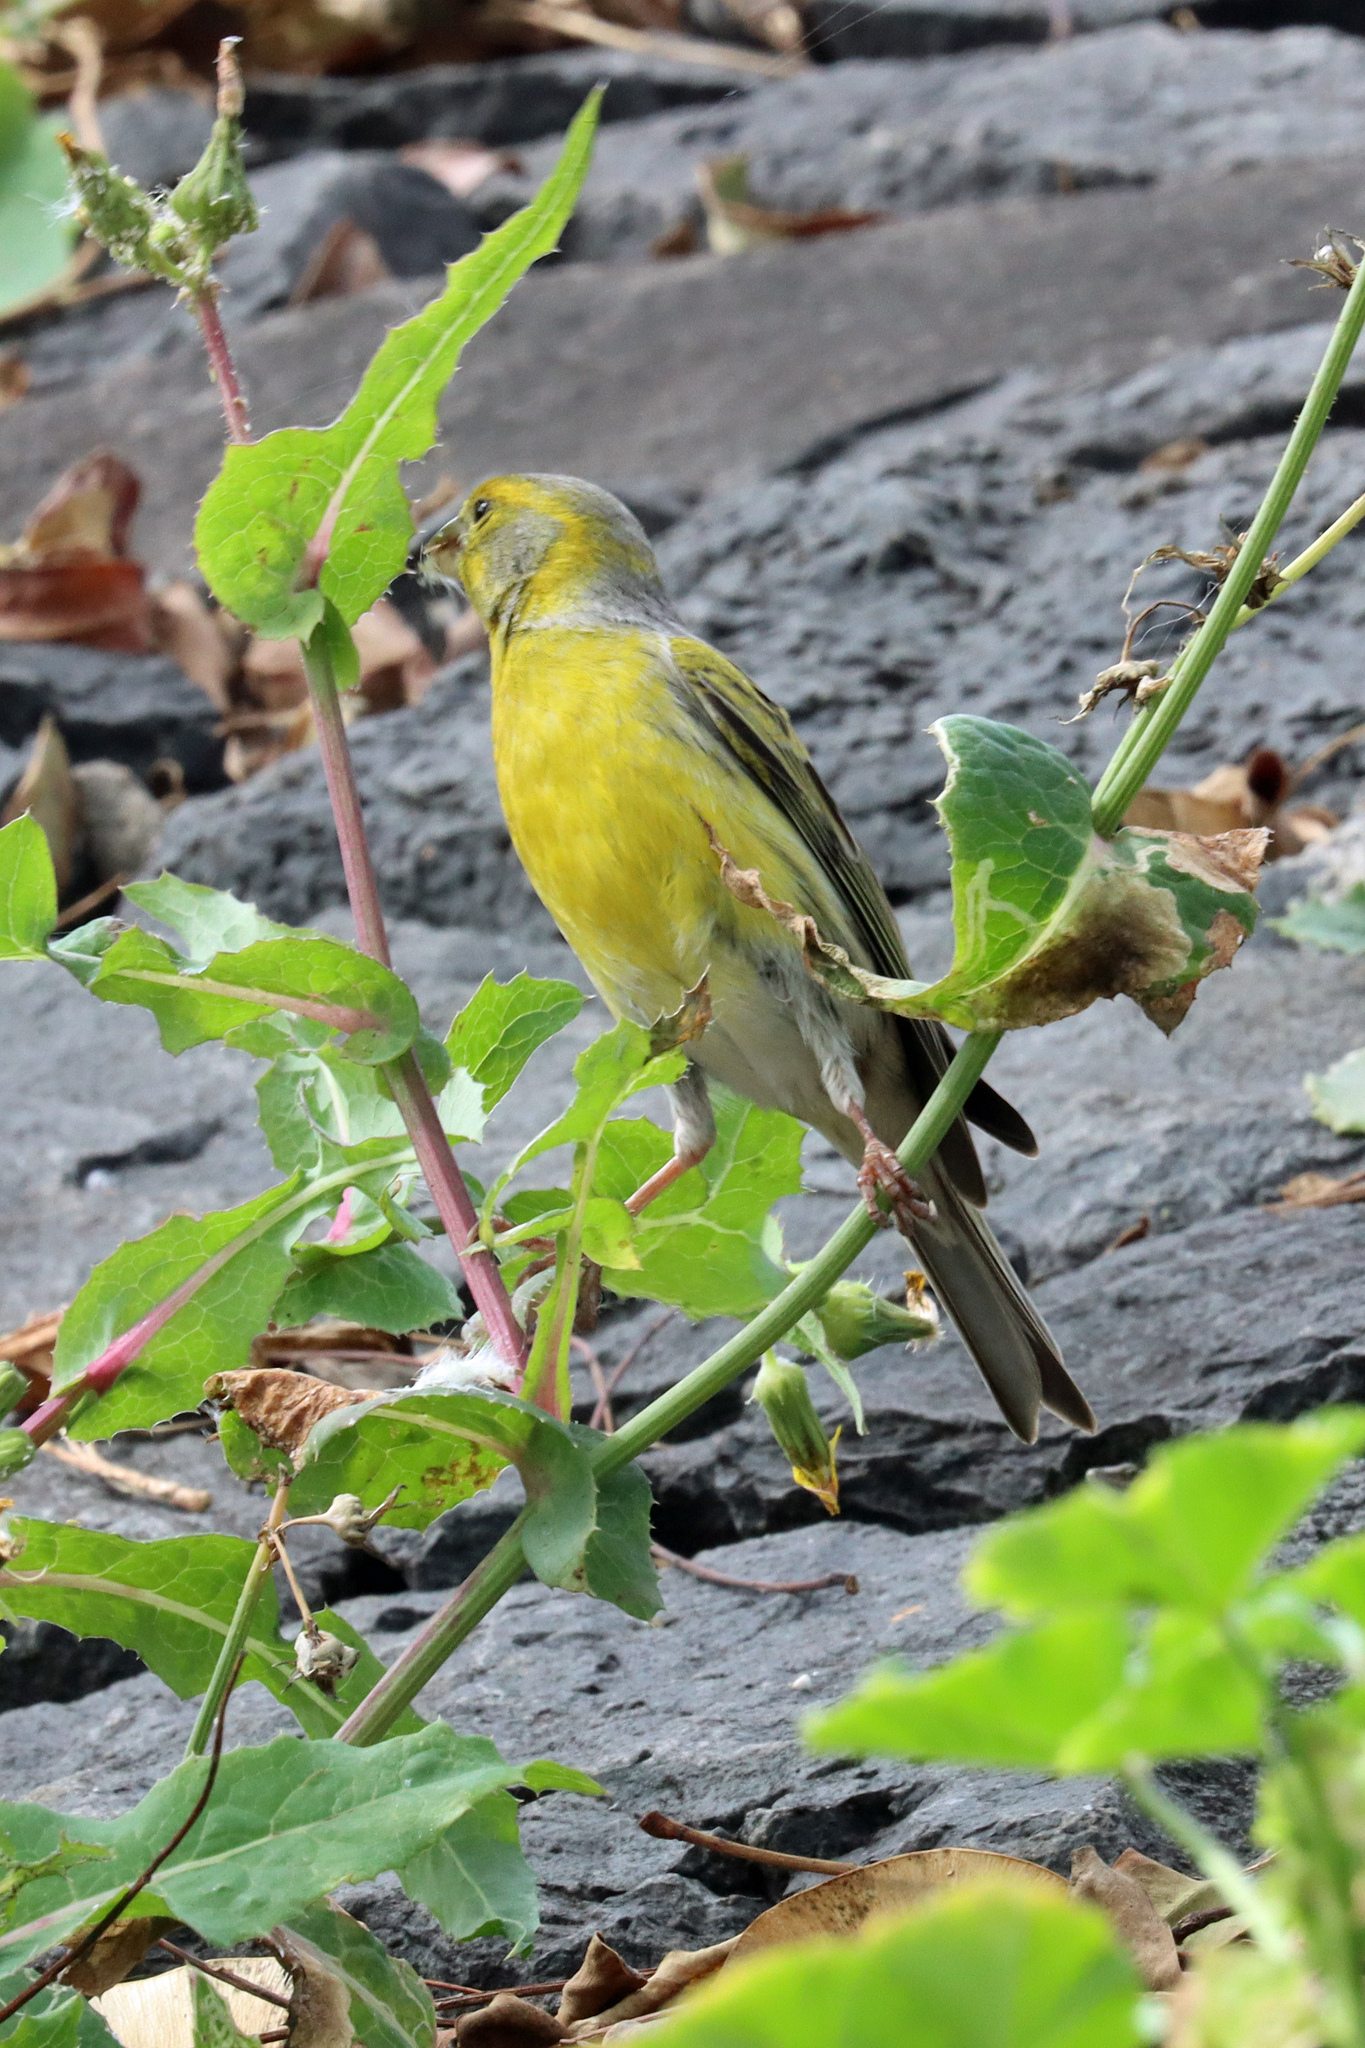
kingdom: Animalia
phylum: Chordata
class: Aves
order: Passeriformes
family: Fringillidae
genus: Serinus
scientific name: Serinus canaria
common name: Atlantic canary
